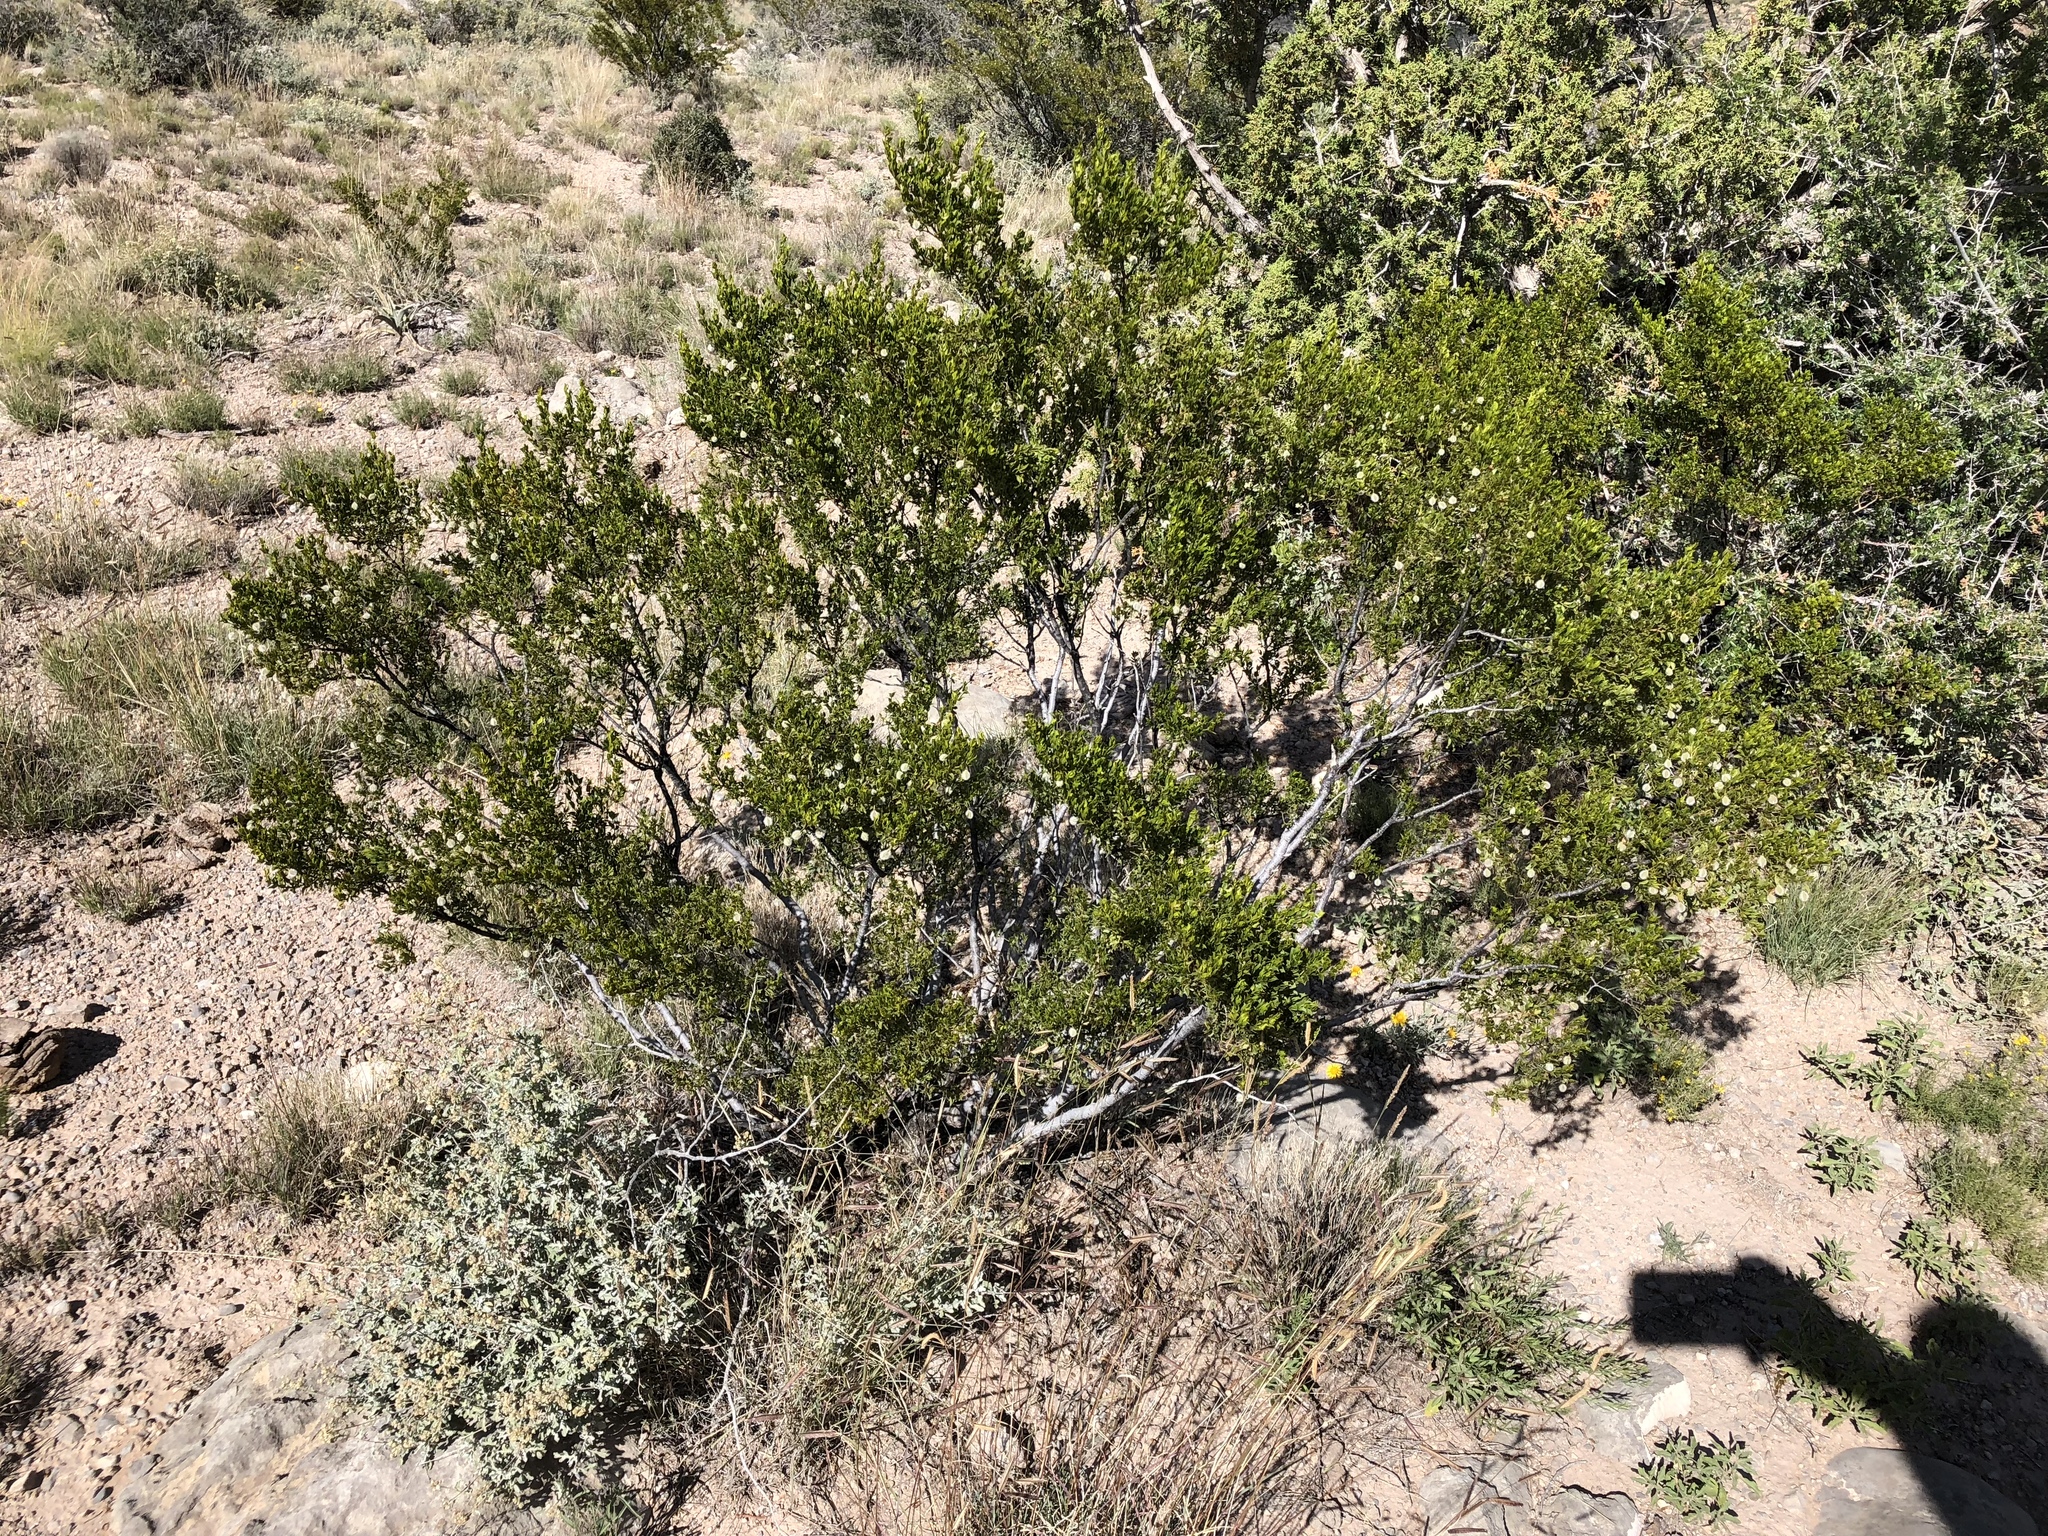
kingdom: Plantae
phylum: Tracheophyta
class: Magnoliopsida
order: Zygophyllales
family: Zygophyllaceae
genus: Larrea
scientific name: Larrea tridentata
